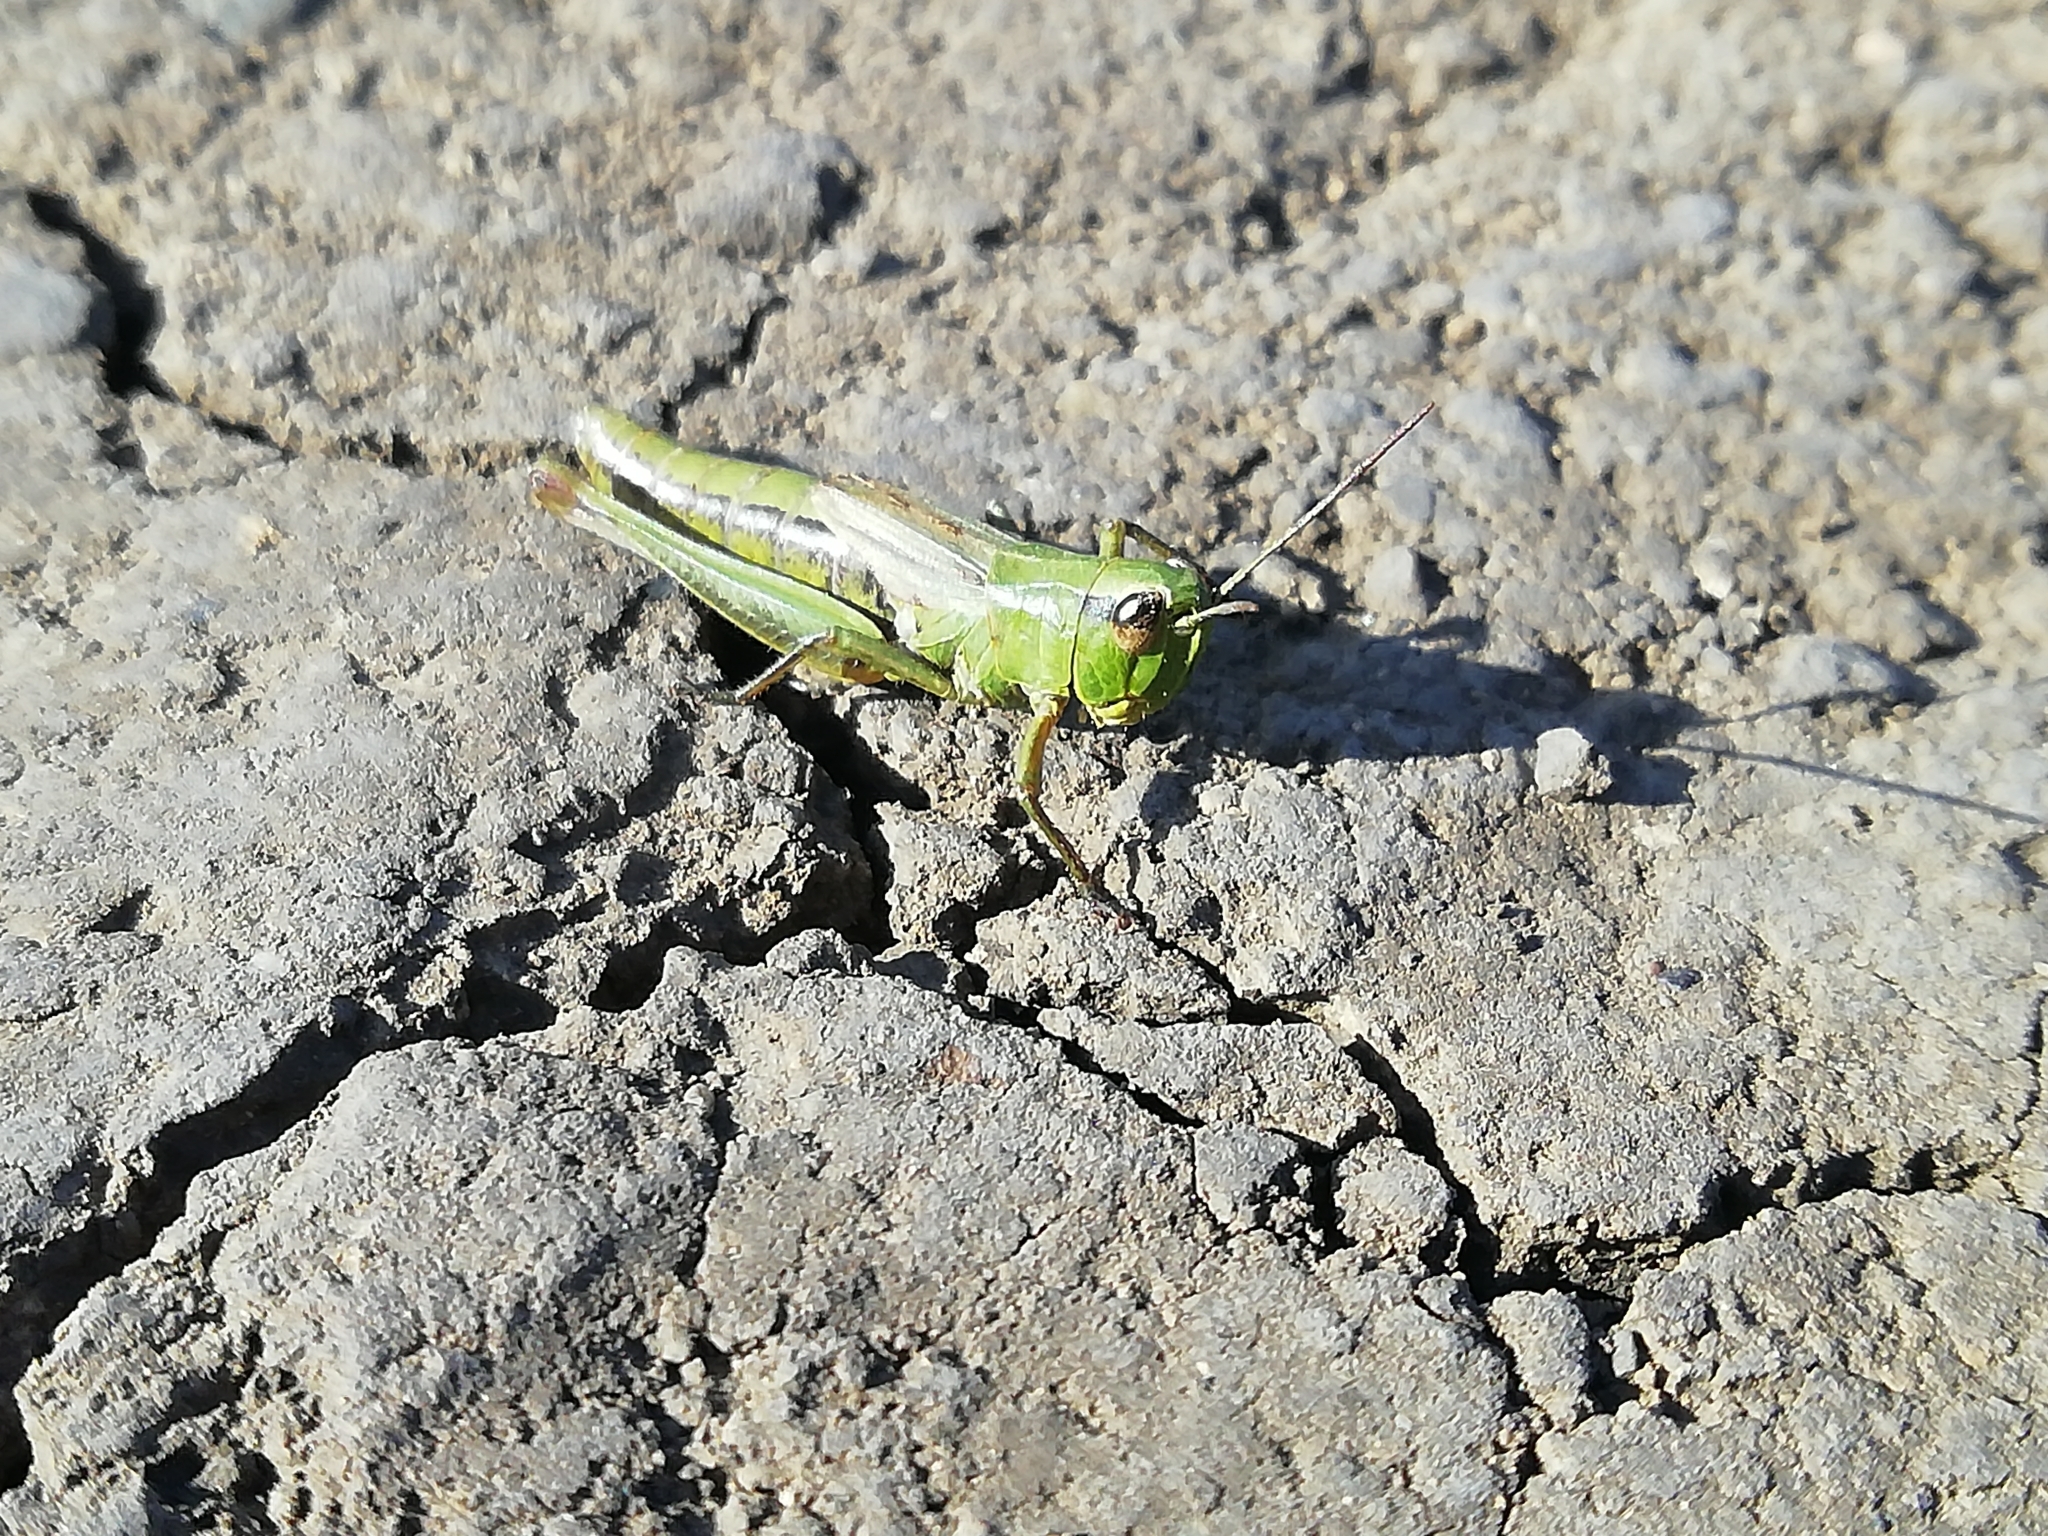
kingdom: Animalia
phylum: Arthropoda
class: Insecta
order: Orthoptera
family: Acrididae
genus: Pseudochorthippus
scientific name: Pseudochorthippus parallelus
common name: Meadow grasshopper
